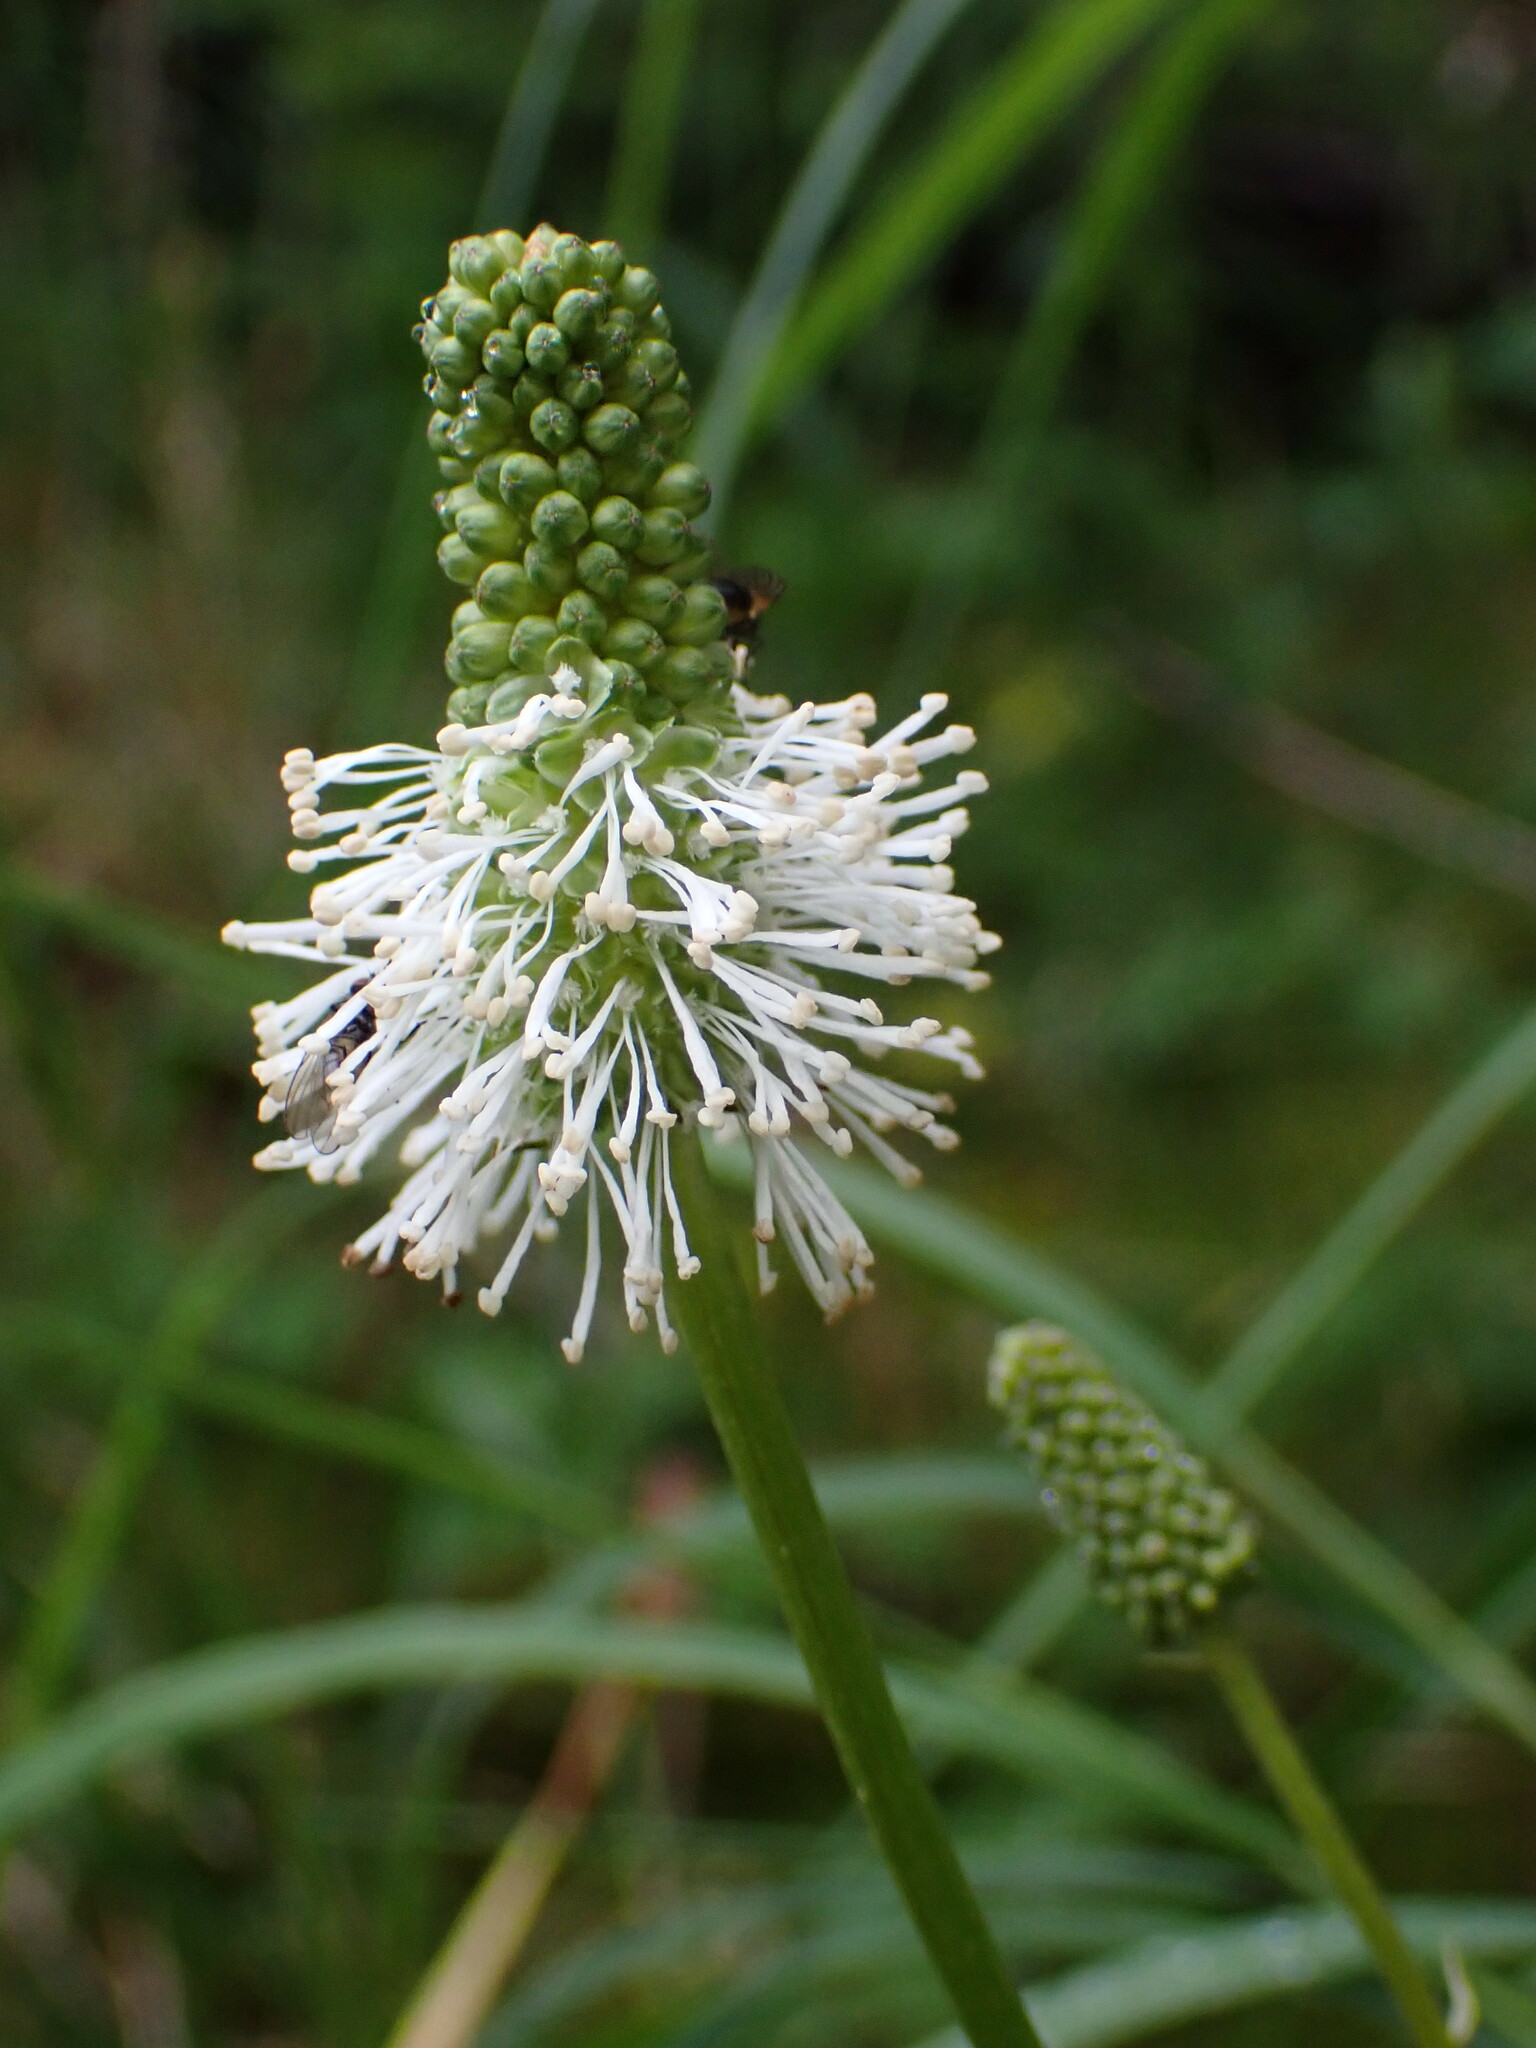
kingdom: Plantae
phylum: Tracheophyta
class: Magnoliopsida
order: Rosales
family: Rosaceae
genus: Sanguisorba
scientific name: Sanguisorba stipulata
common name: Sitka burnet
